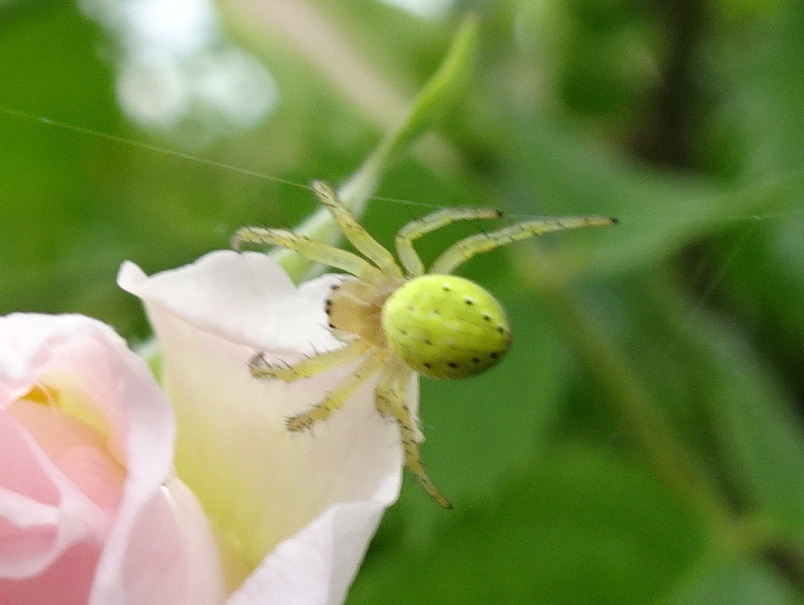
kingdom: Animalia
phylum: Arthropoda
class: Arachnida
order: Araneae
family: Araneidae
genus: Araniella
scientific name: Araniella
